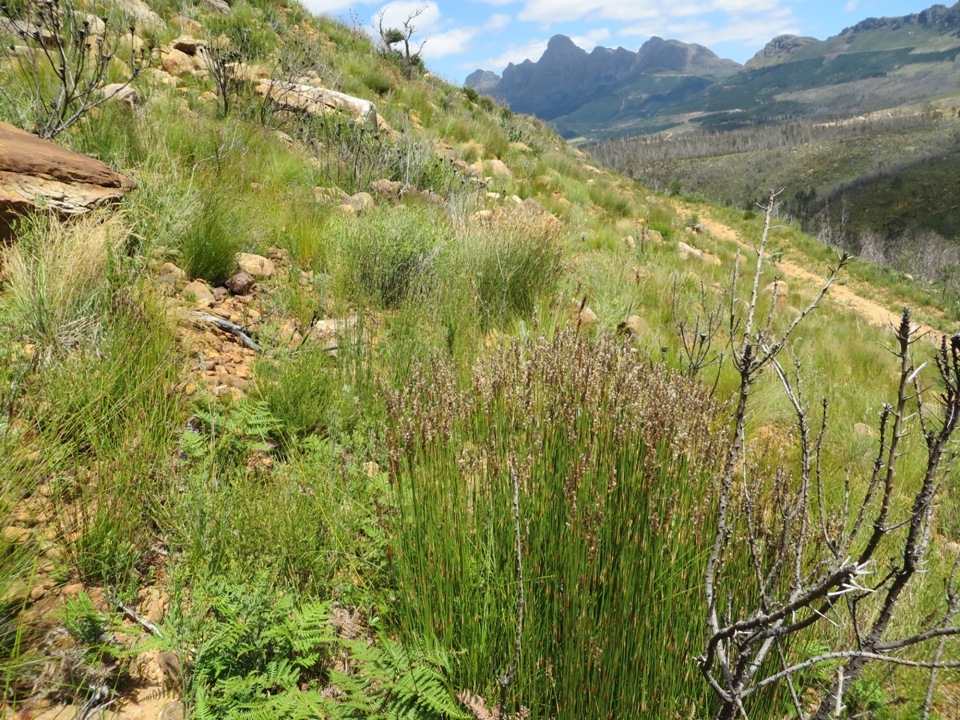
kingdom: Plantae
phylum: Tracheophyta
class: Liliopsida
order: Poales
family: Restionaceae
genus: Hypodiscus
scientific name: Hypodiscus argenteus
